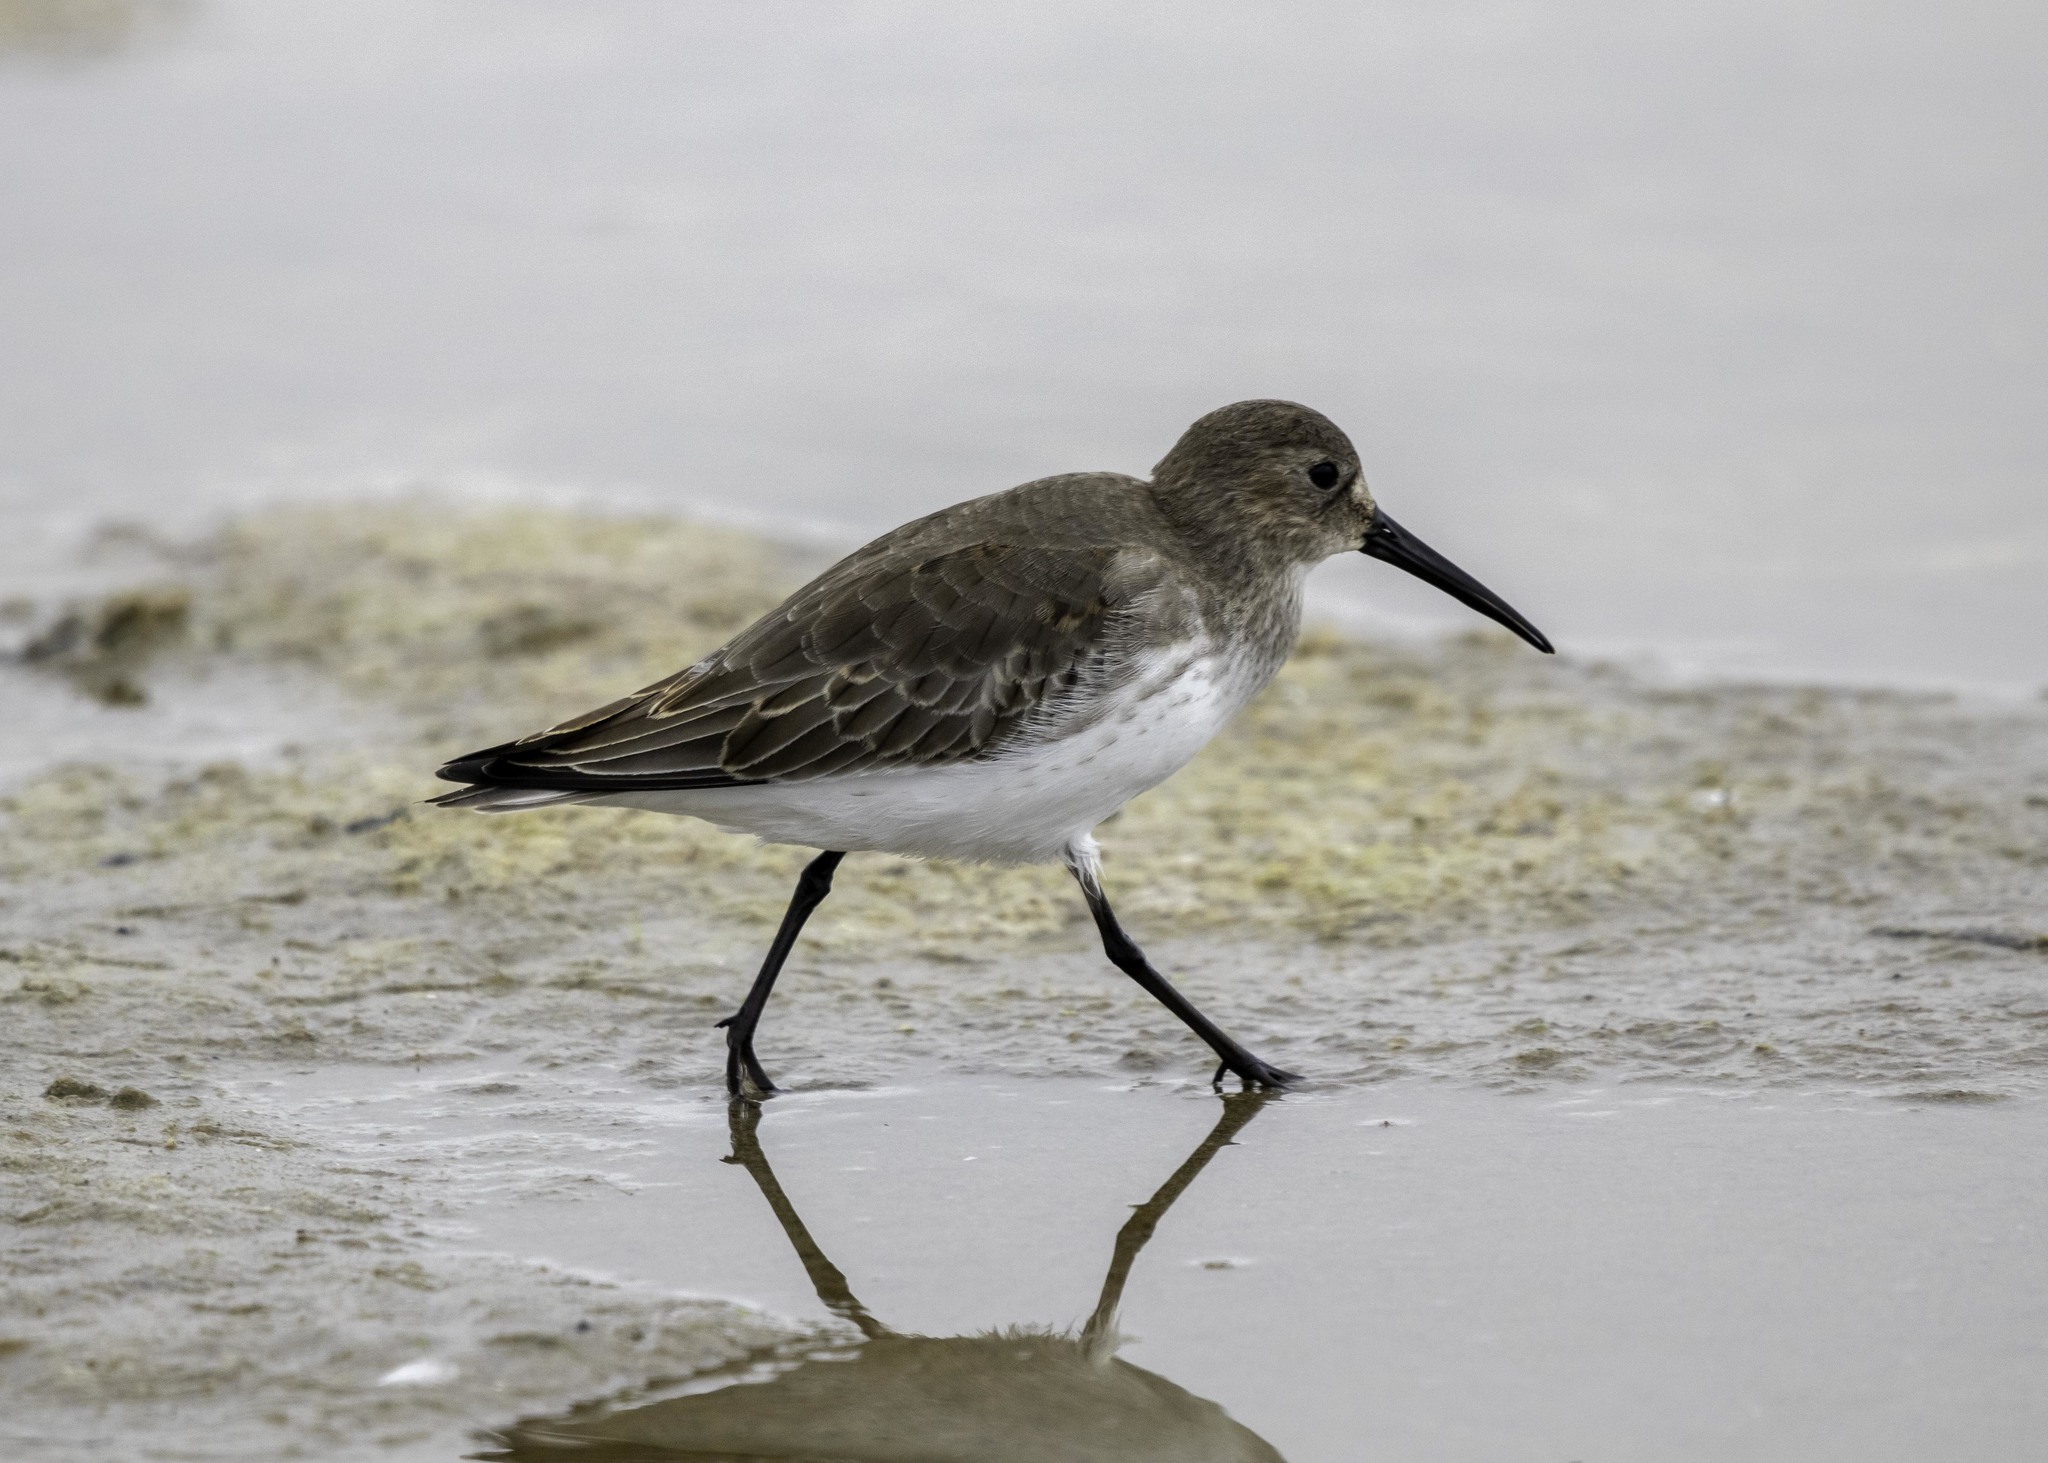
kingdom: Animalia
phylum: Chordata
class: Aves
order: Charadriiformes
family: Scolopacidae
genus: Calidris
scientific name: Calidris alpina
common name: Dunlin
